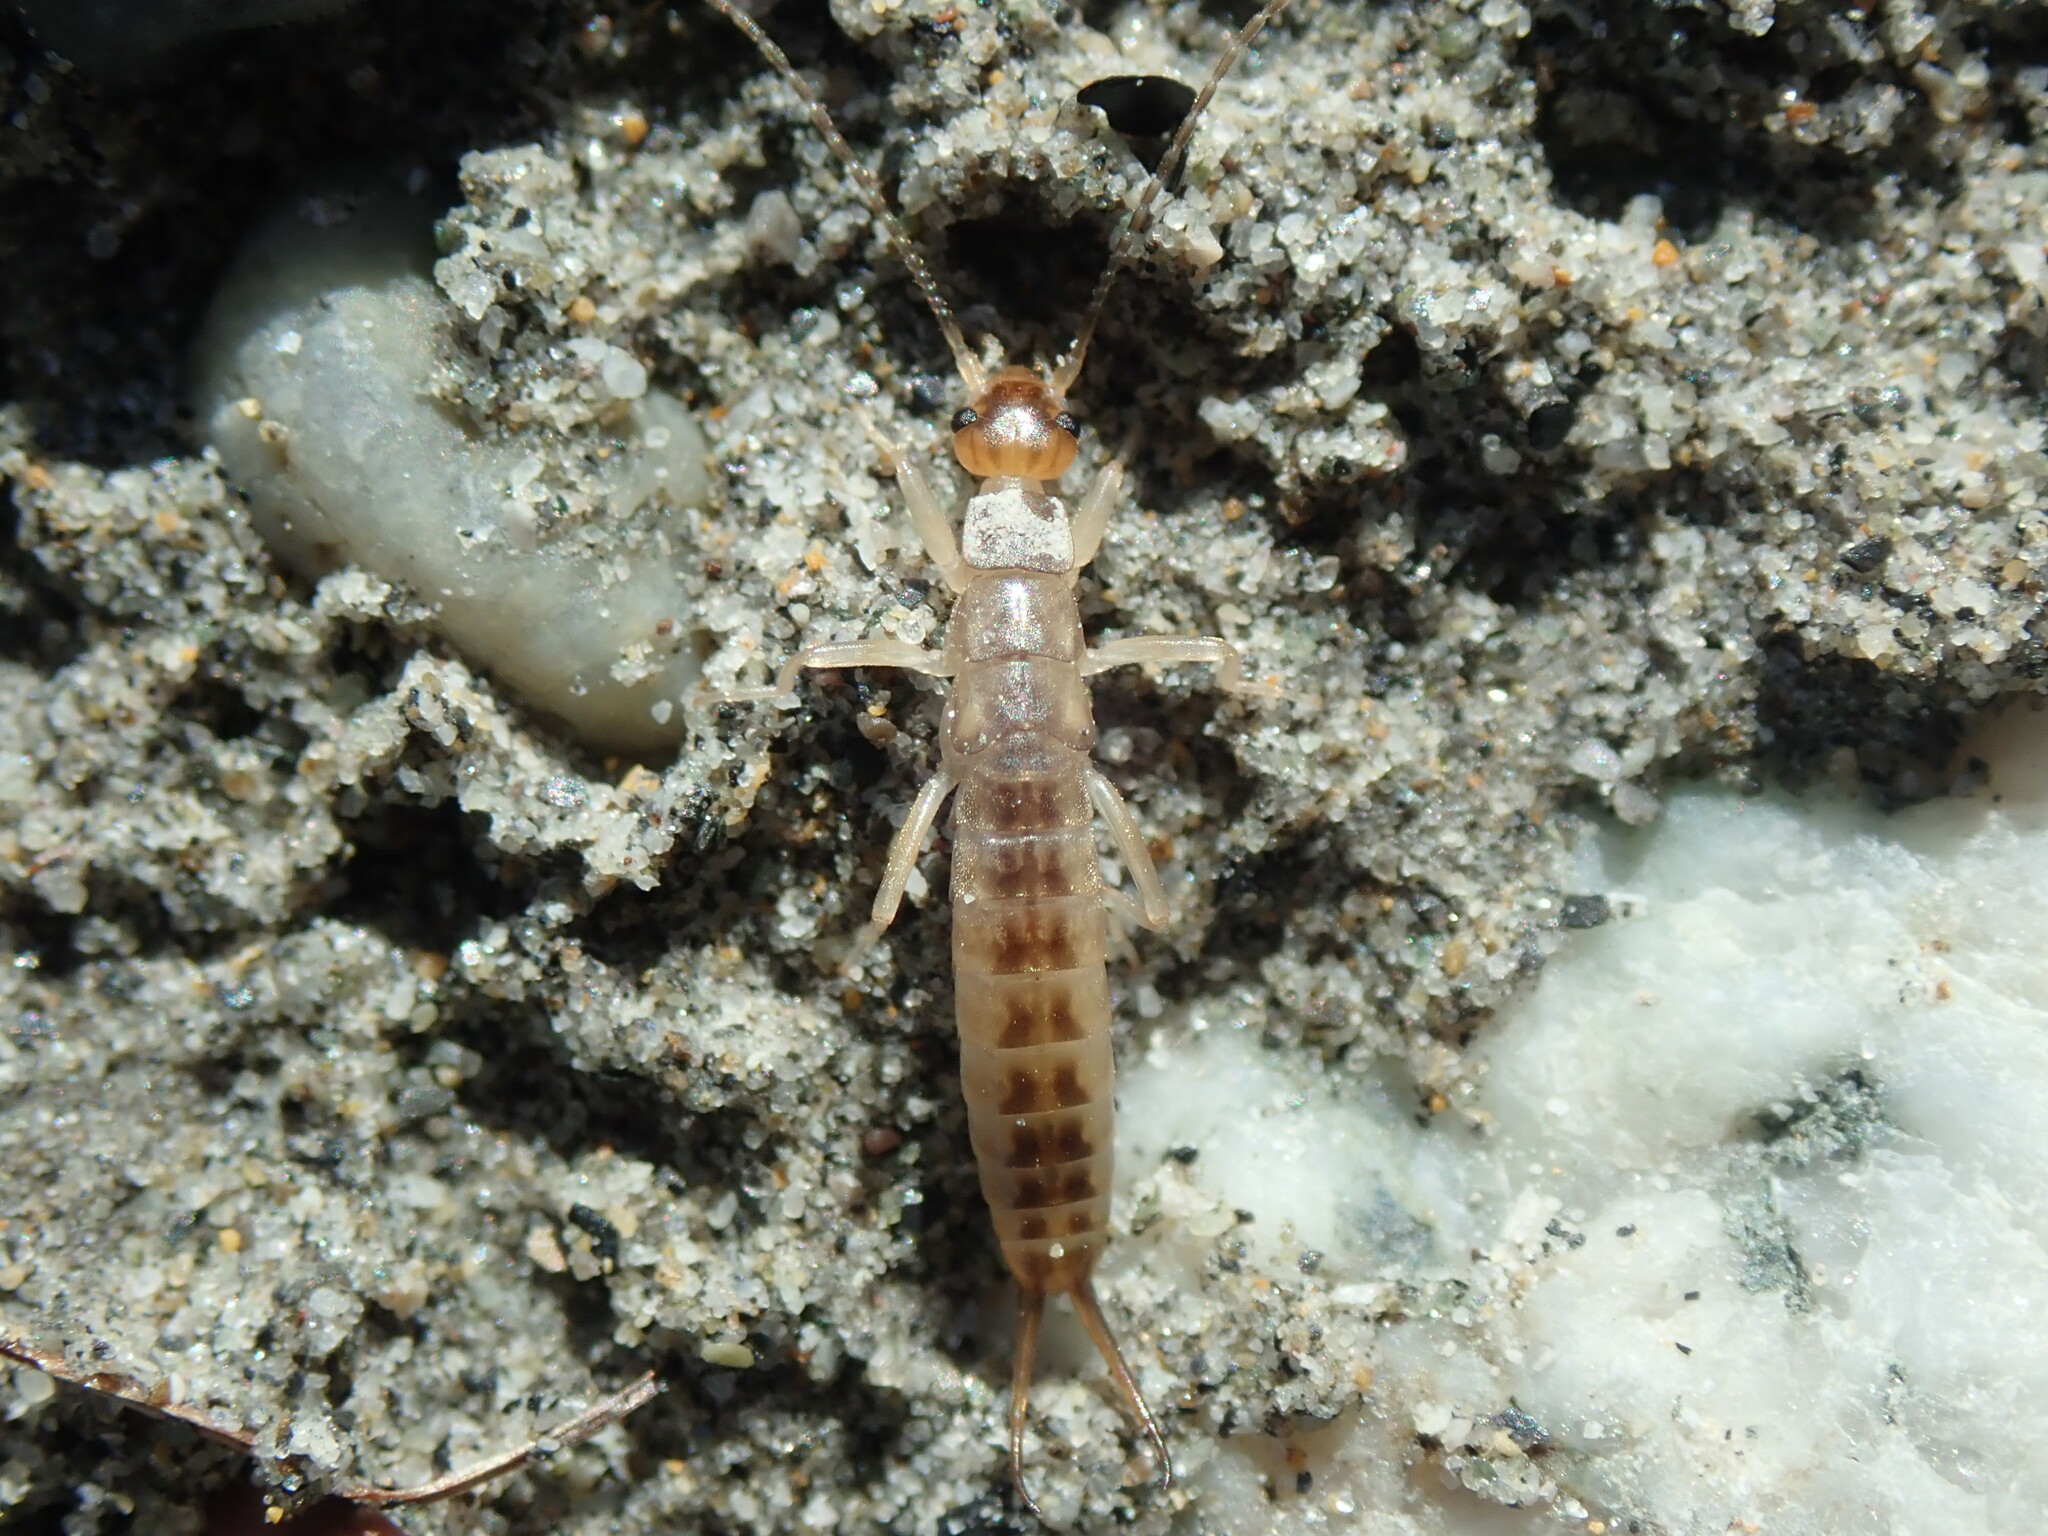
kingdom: Animalia
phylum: Arthropoda
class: Insecta
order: Dermaptera
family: Labiduridae
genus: Labidura
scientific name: Labidura riparia
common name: Striped earwig
